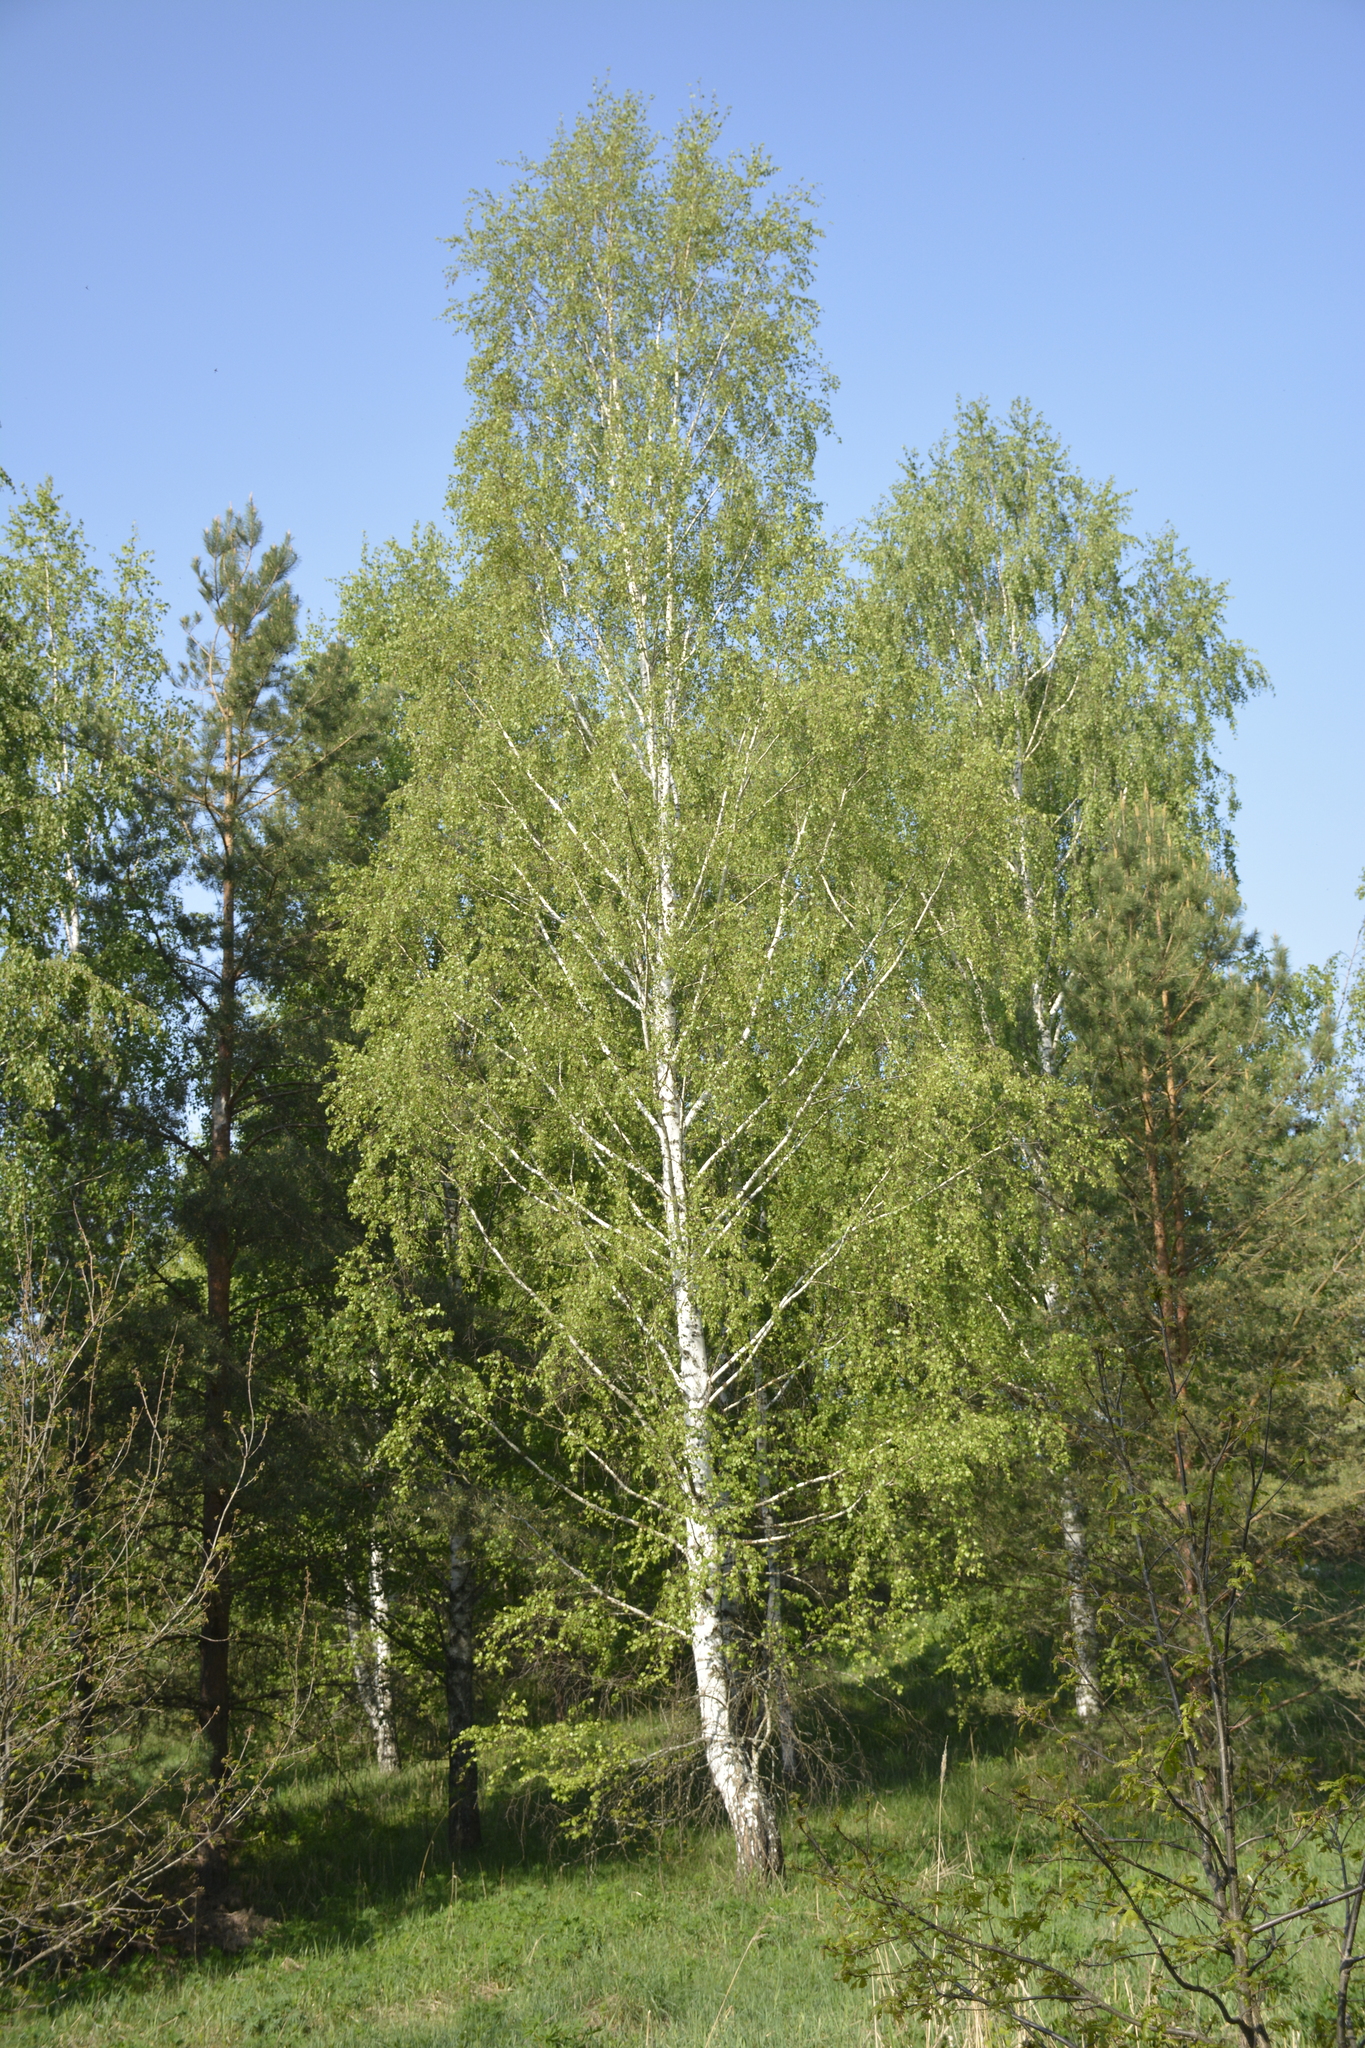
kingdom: Plantae
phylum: Tracheophyta
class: Magnoliopsida
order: Fagales
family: Betulaceae
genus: Betula
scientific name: Betula pendula
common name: Silver birch
